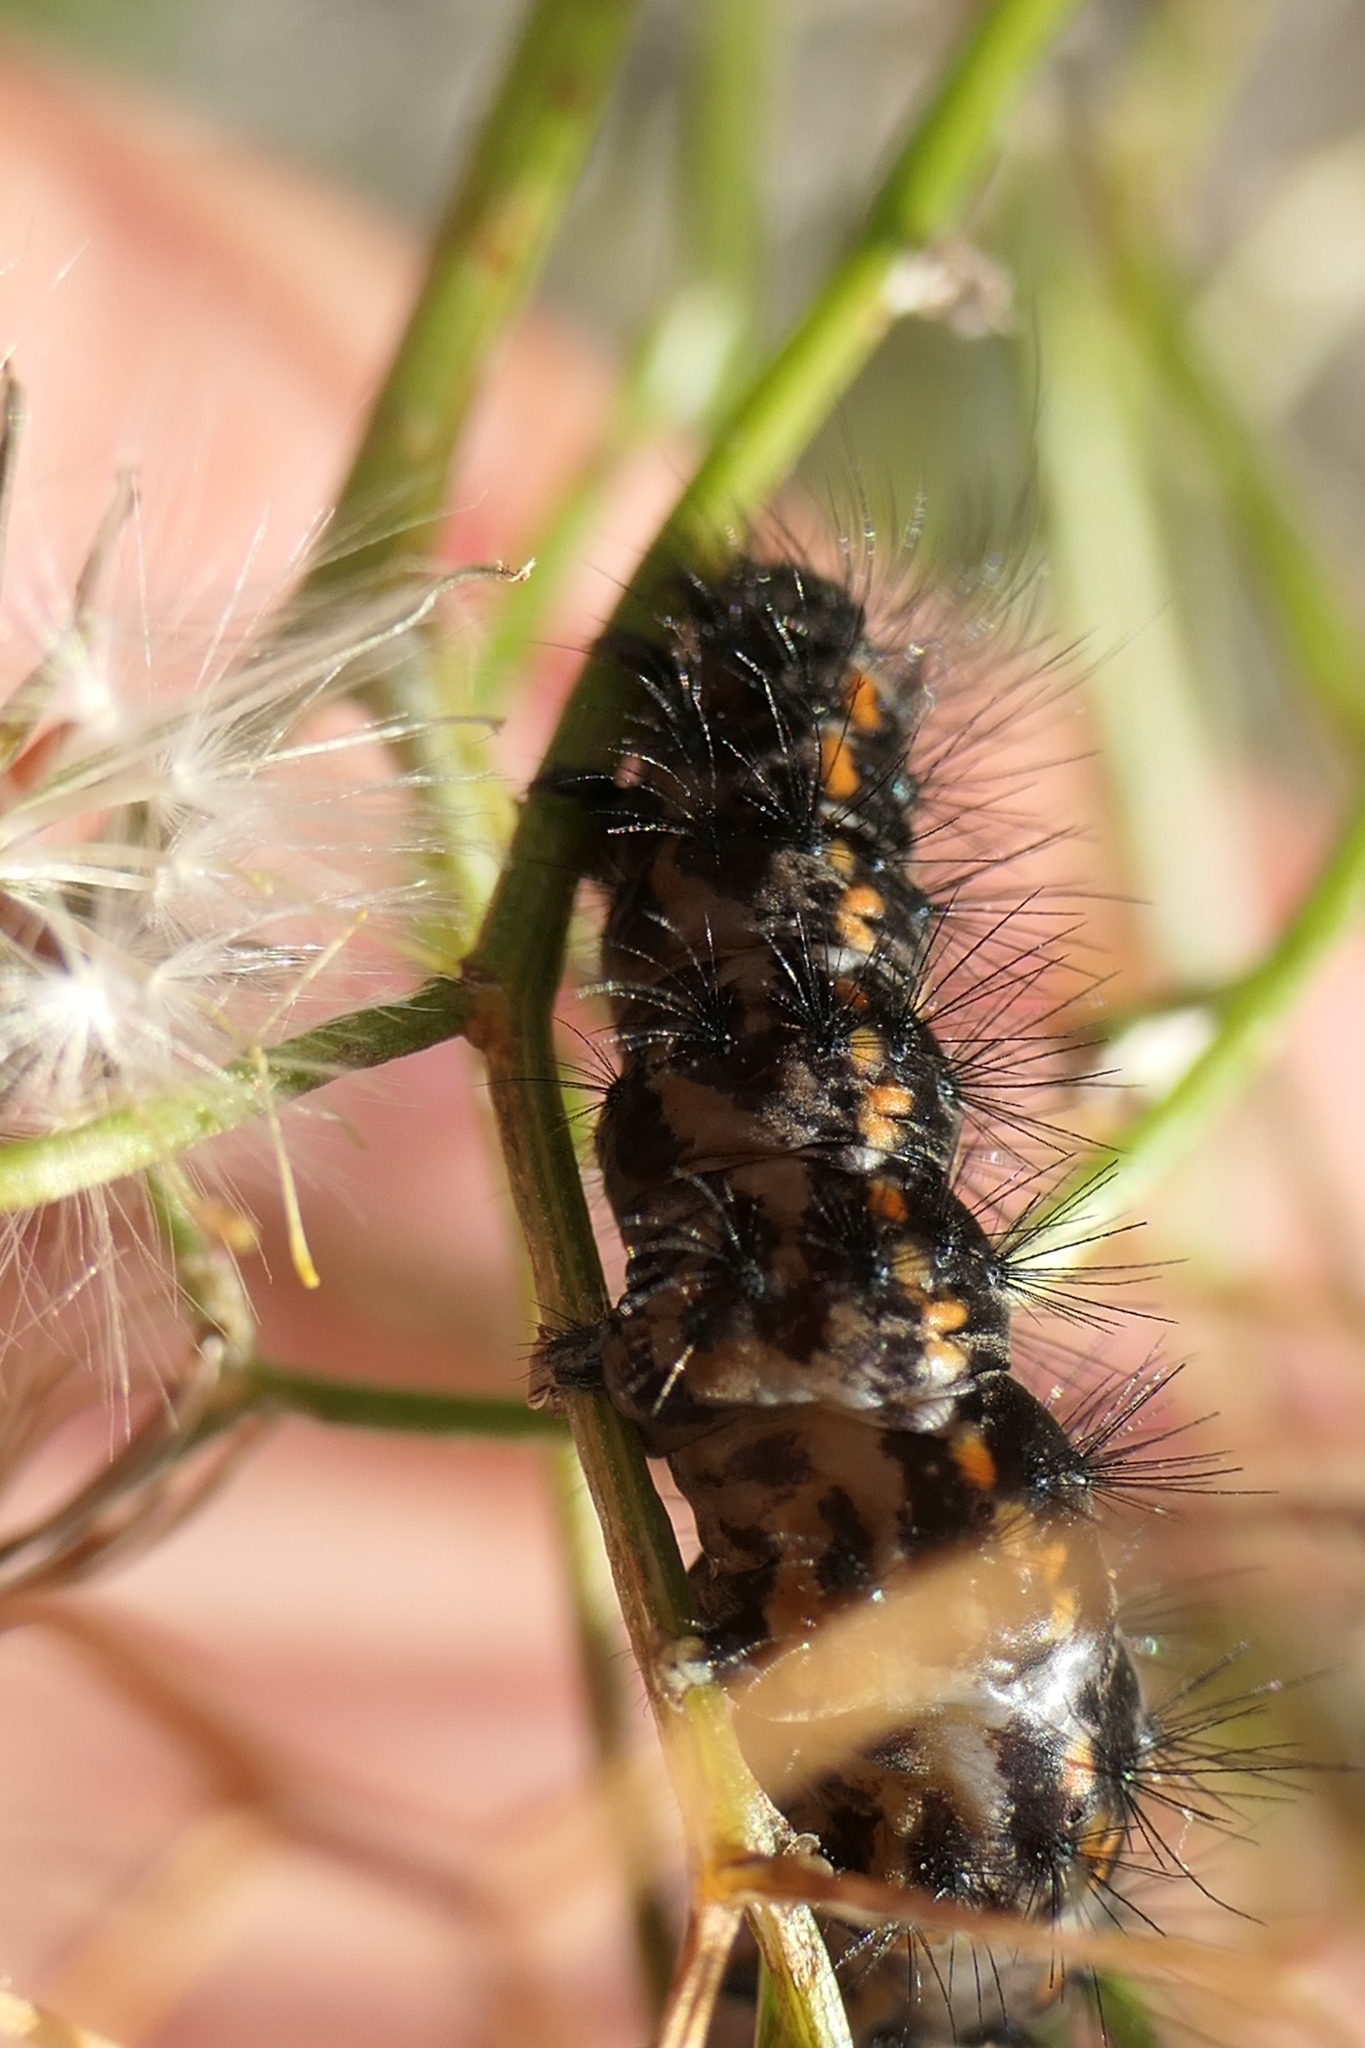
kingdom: Animalia
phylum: Arthropoda
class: Insecta
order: Lepidoptera
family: Erebidae
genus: Nyctemera
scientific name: Nyctemera annulatum
